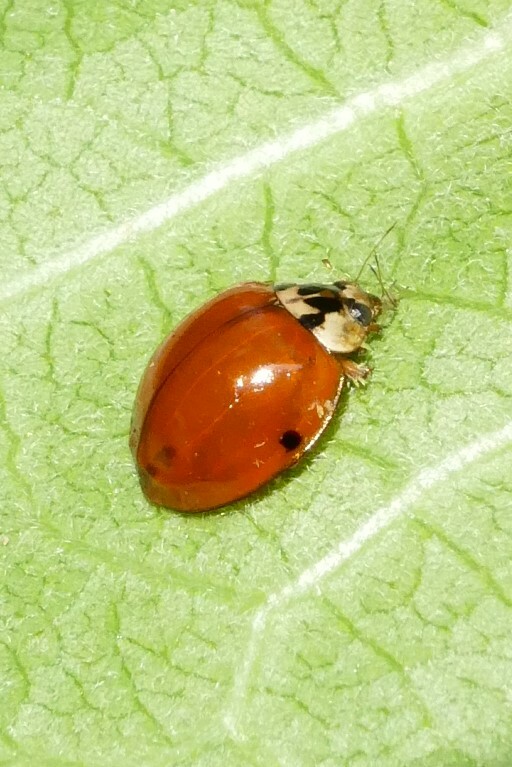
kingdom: Animalia
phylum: Arthropoda
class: Insecta
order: Coleoptera
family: Coccinellidae
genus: Harmonia
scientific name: Harmonia axyridis
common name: Harlequin ladybird
